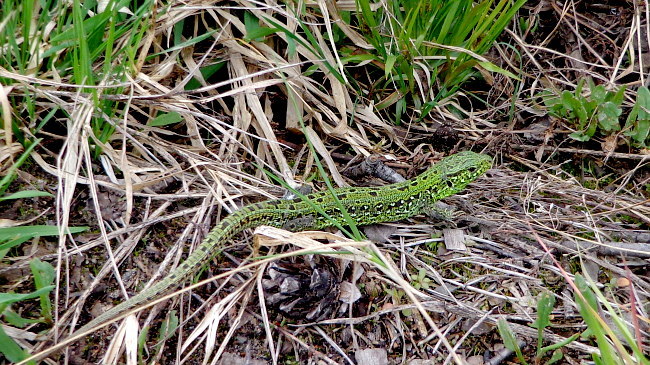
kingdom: Animalia
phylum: Chordata
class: Squamata
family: Lacertidae
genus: Lacerta
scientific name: Lacerta agilis
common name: Sand lizard
